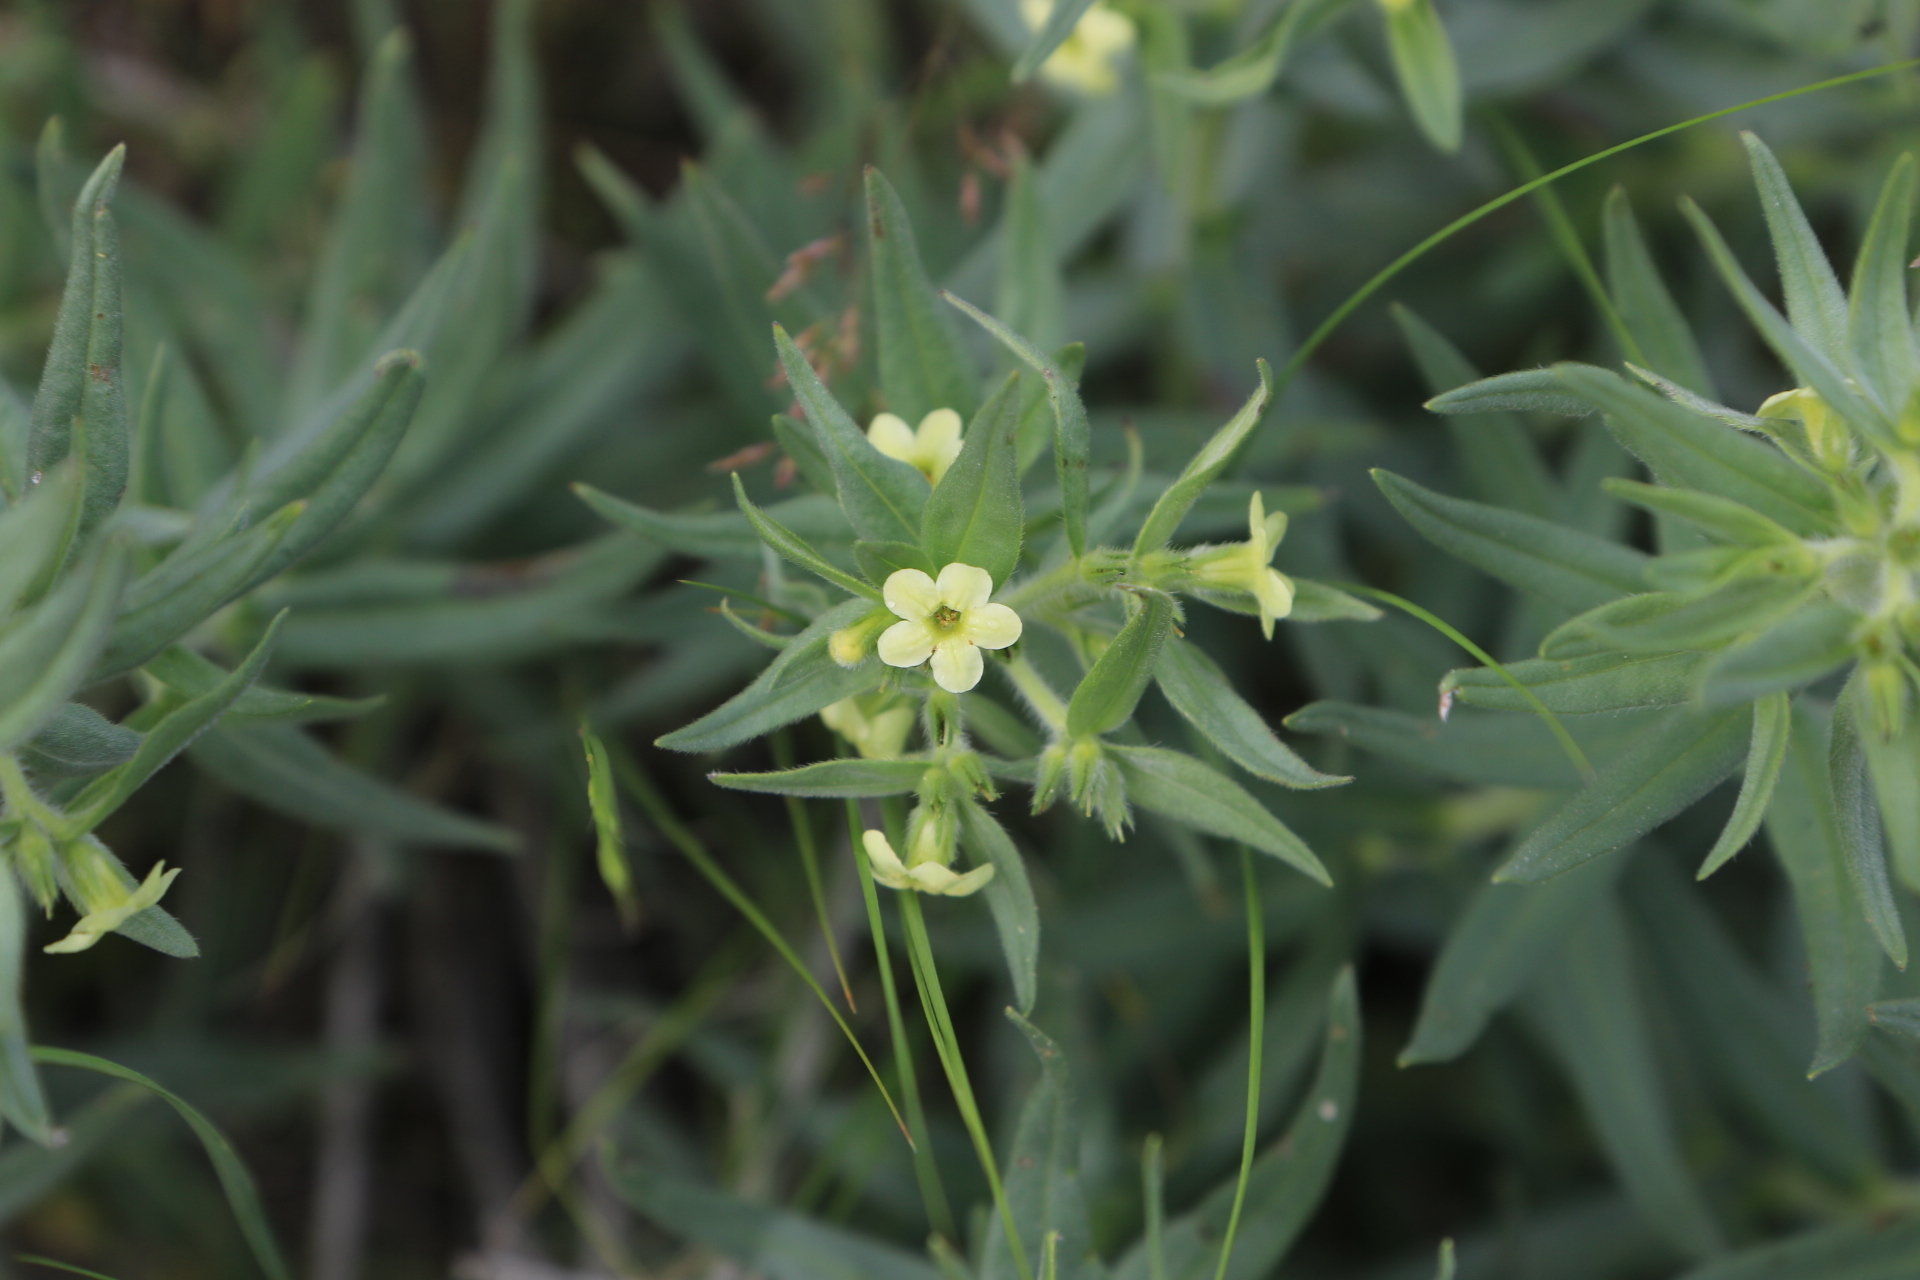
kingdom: Plantae
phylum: Tracheophyta
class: Magnoliopsida
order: Boraginales
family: Boraginaceae
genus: Lithospermum
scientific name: Lithospermum ruderale
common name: Western gromwell
